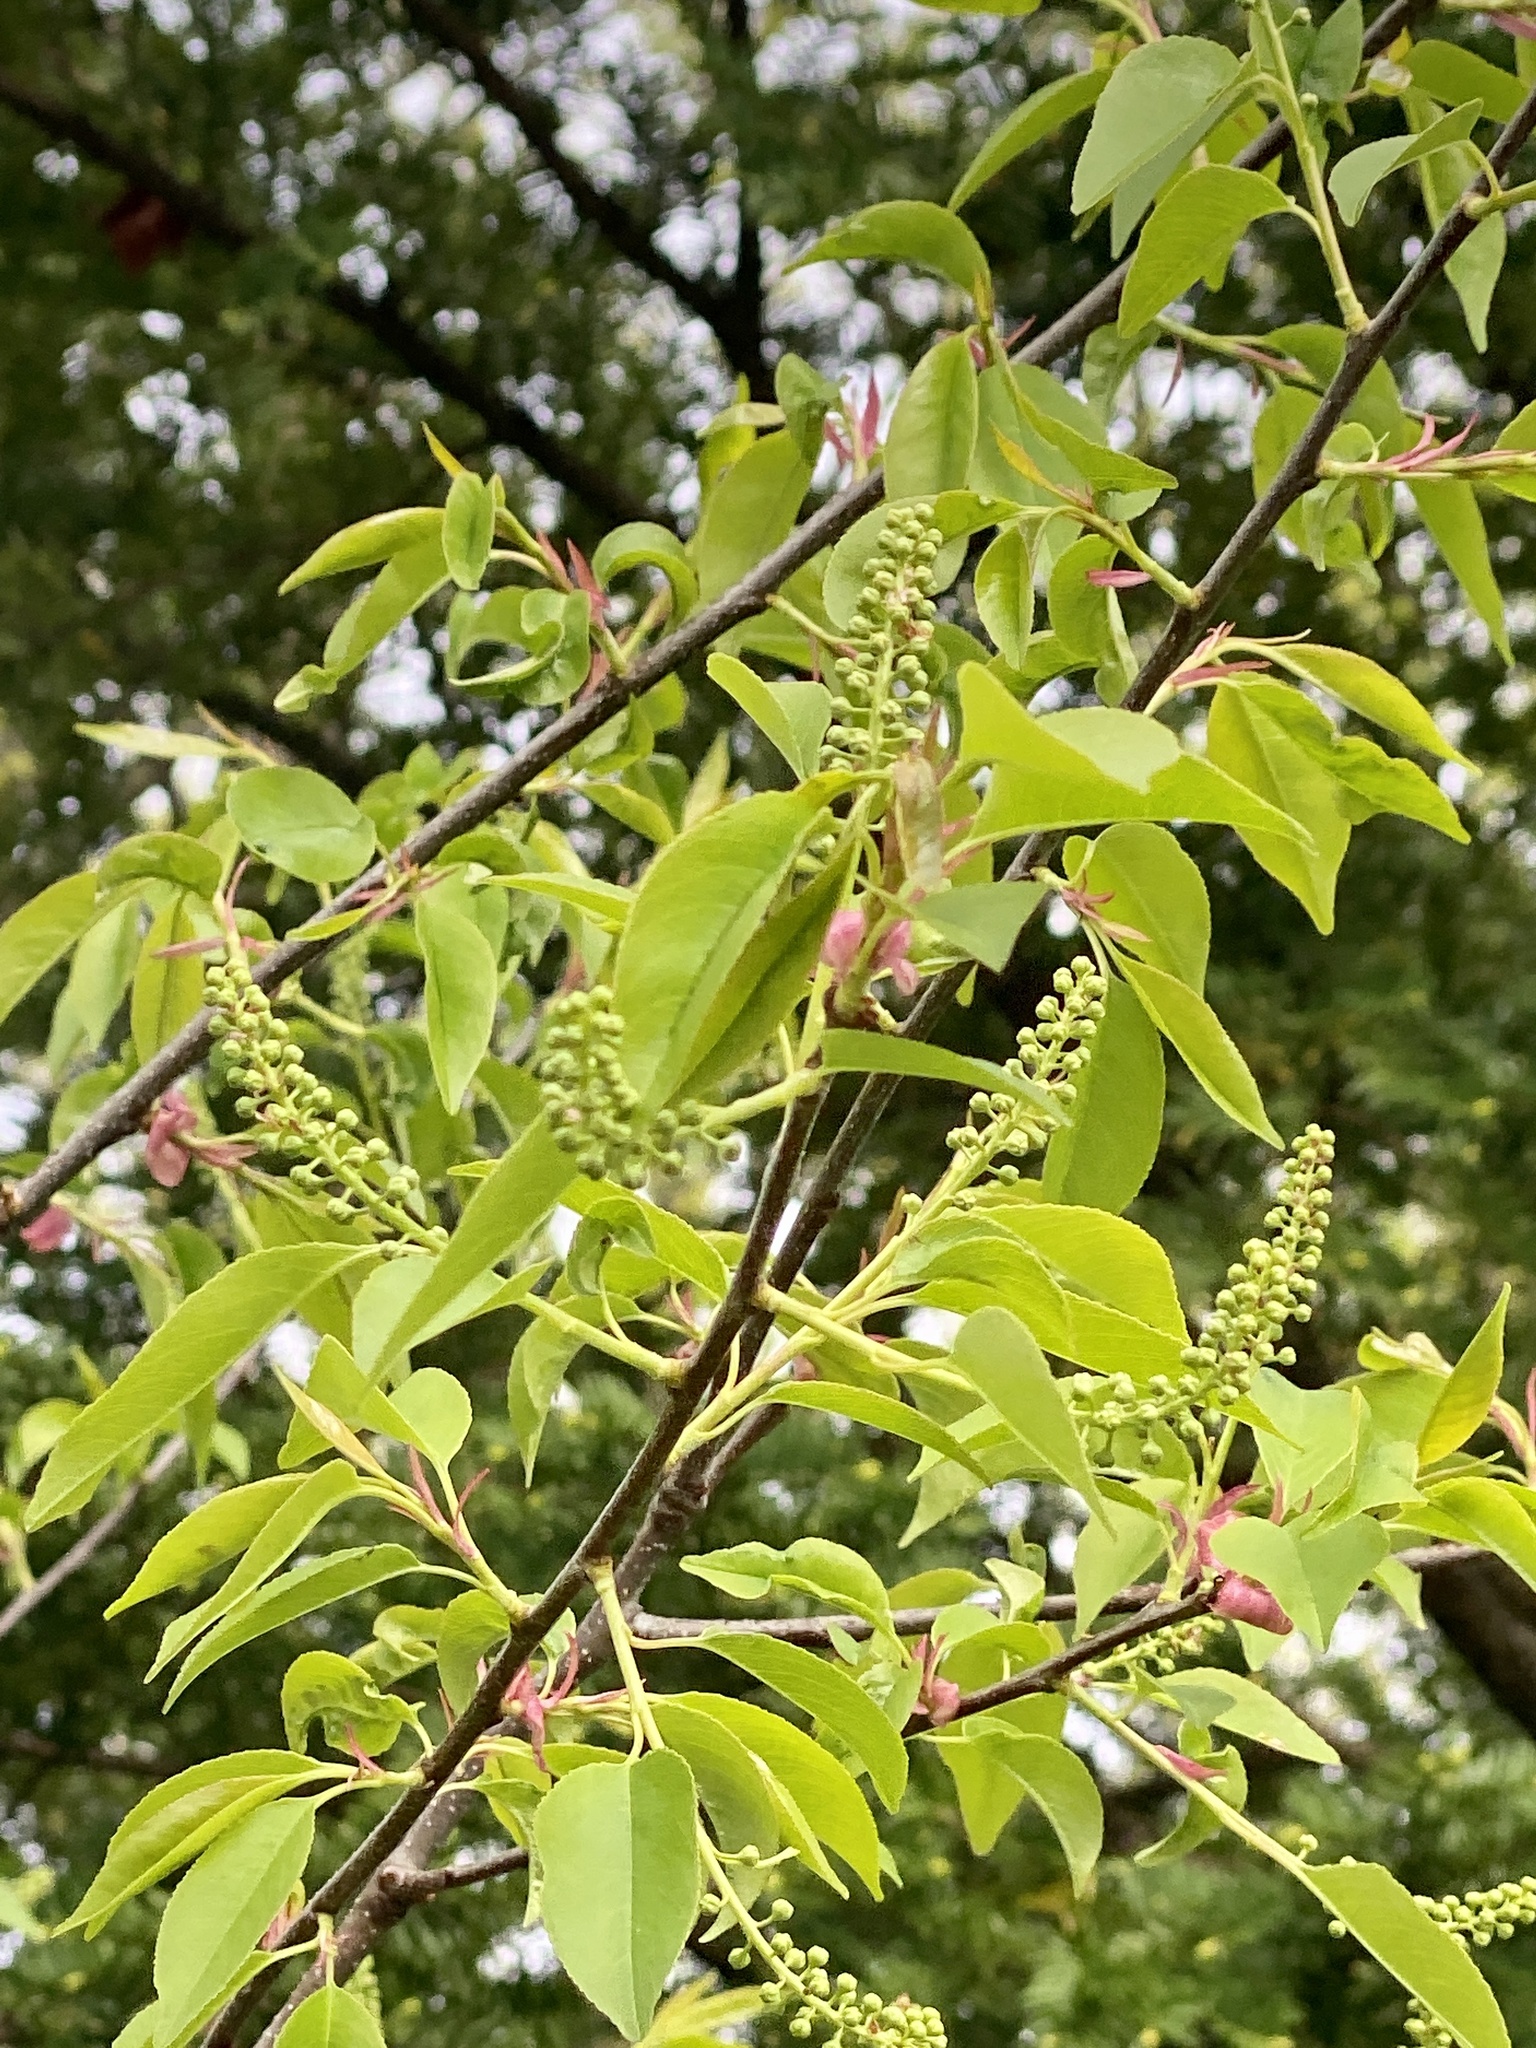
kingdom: Plantae
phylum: Tracheophyta
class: Magnoliopsida
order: Rosales
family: Rosaceae
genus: Prunus
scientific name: Prunus serotina
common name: Black cherry
